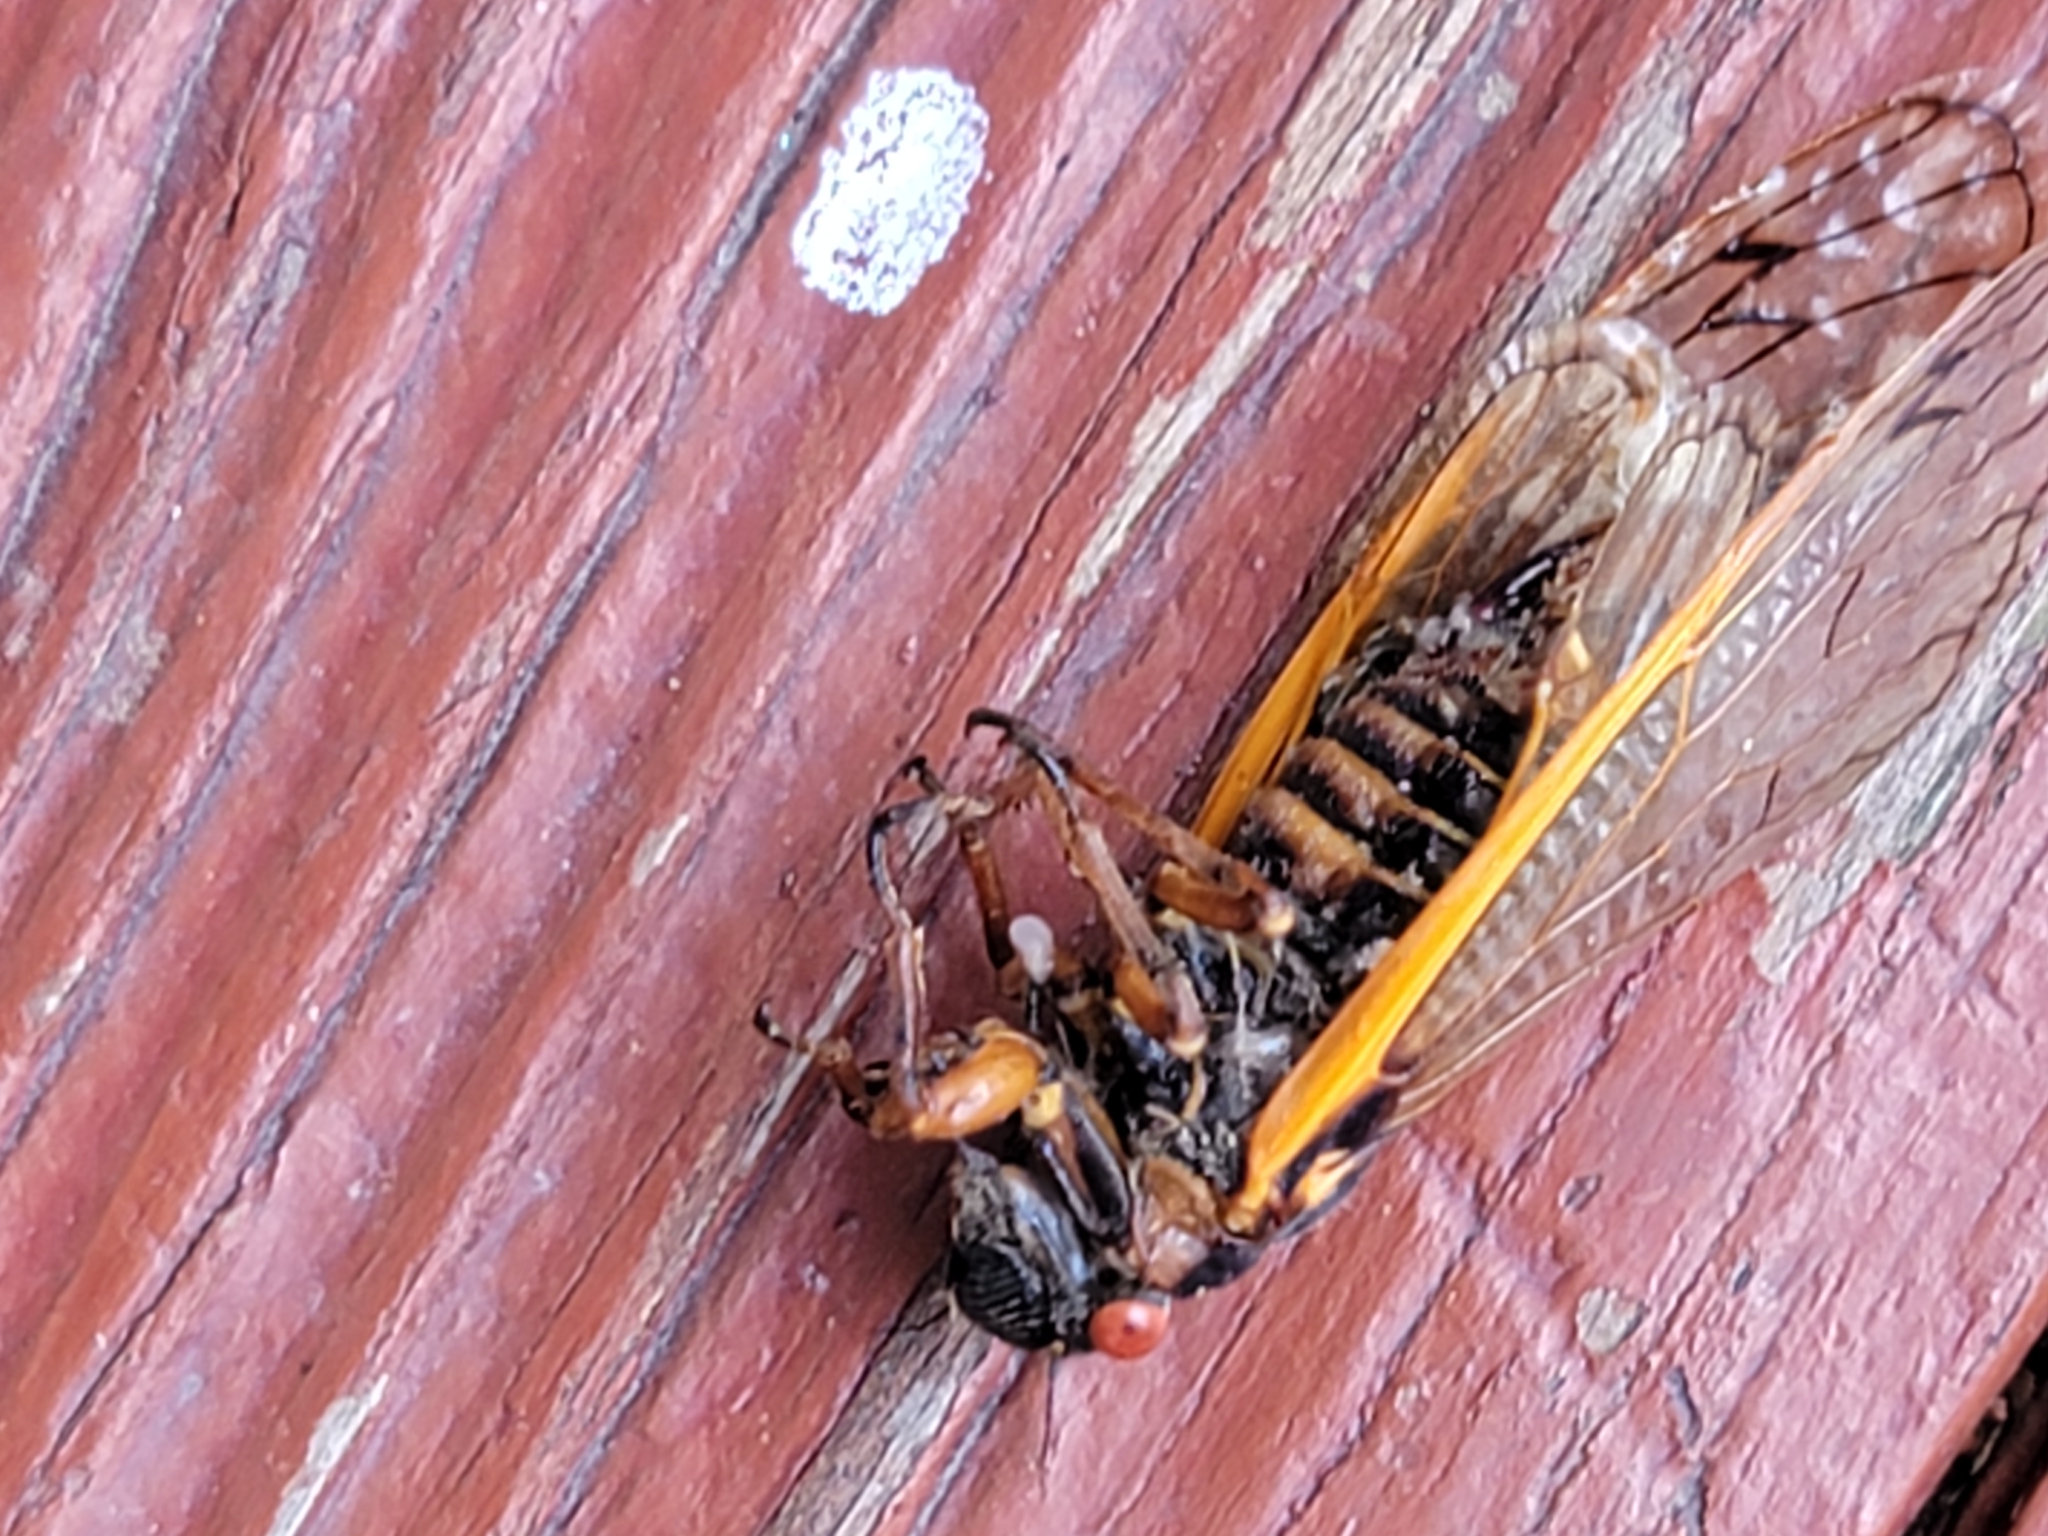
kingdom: Animalia
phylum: Arthropoda
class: Insecta
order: Hemiptera
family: Cicadidae
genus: Magicicada
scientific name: Magicicada septendecim
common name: Periodical cicada
